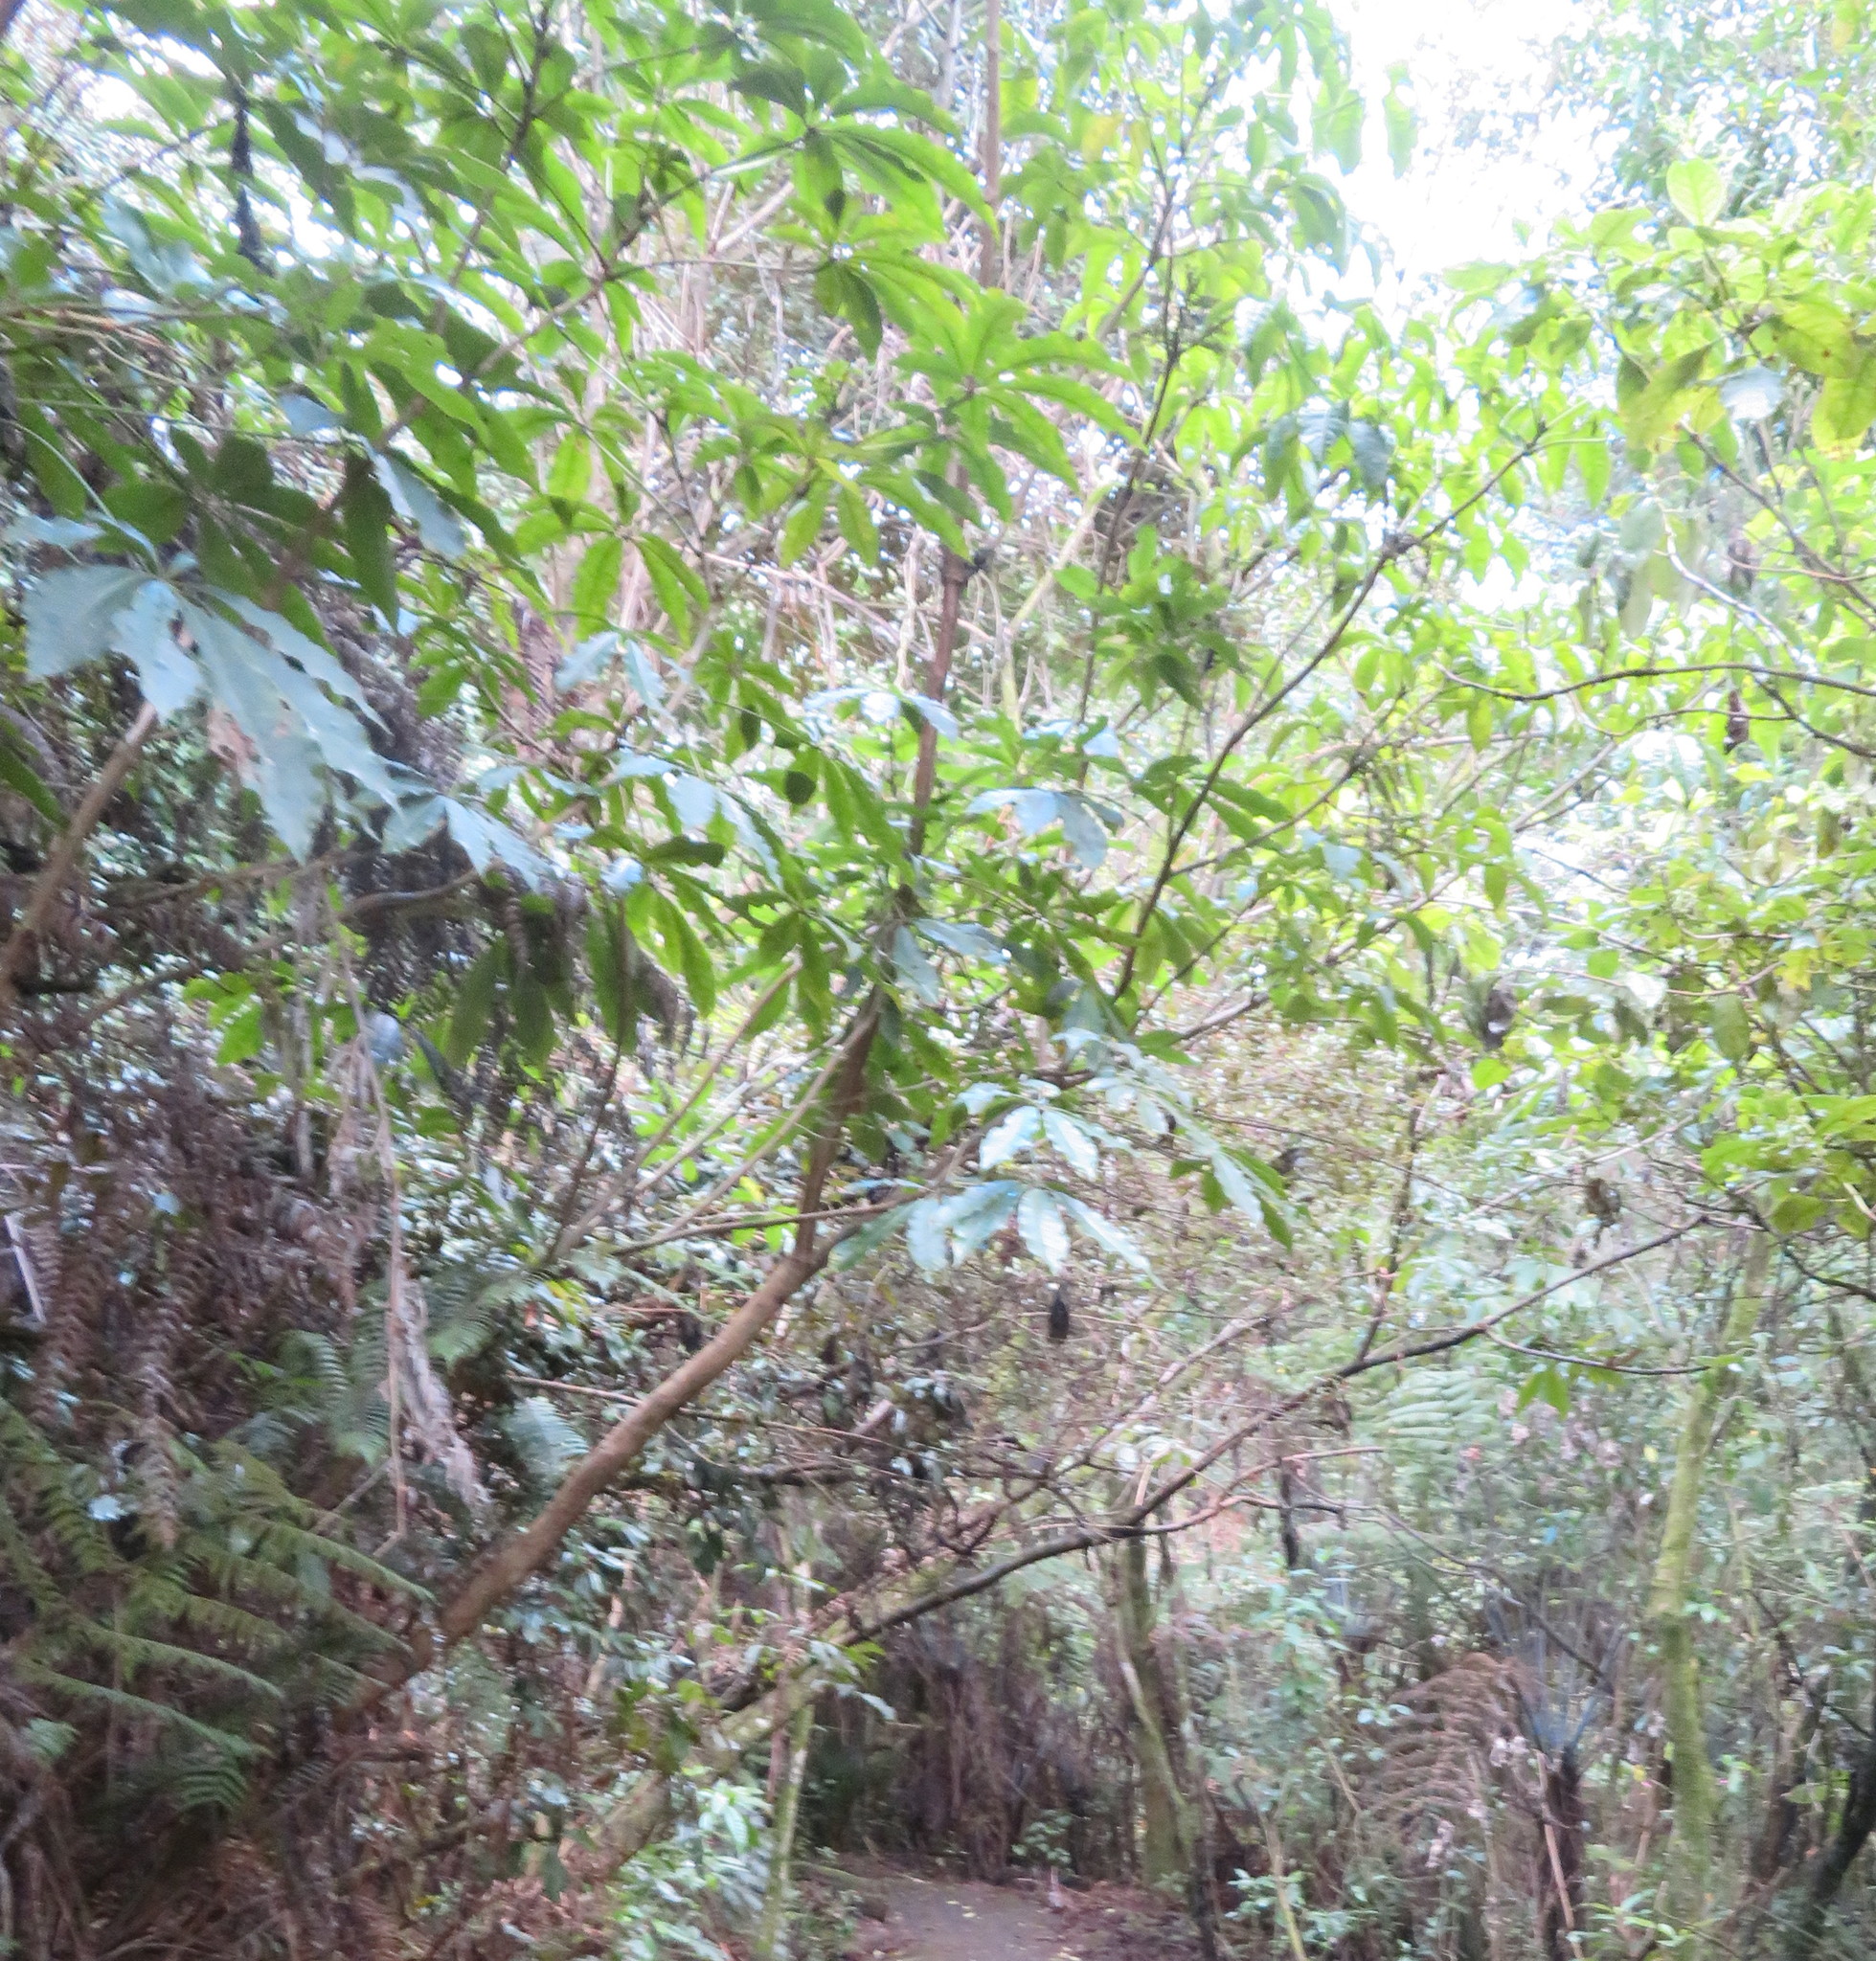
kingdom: Plantae
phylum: Tracheophyta
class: Magnoliopsida
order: Apiales
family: Araliaceae
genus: Schefflera
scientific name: Schefflera digitata
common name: Pate
